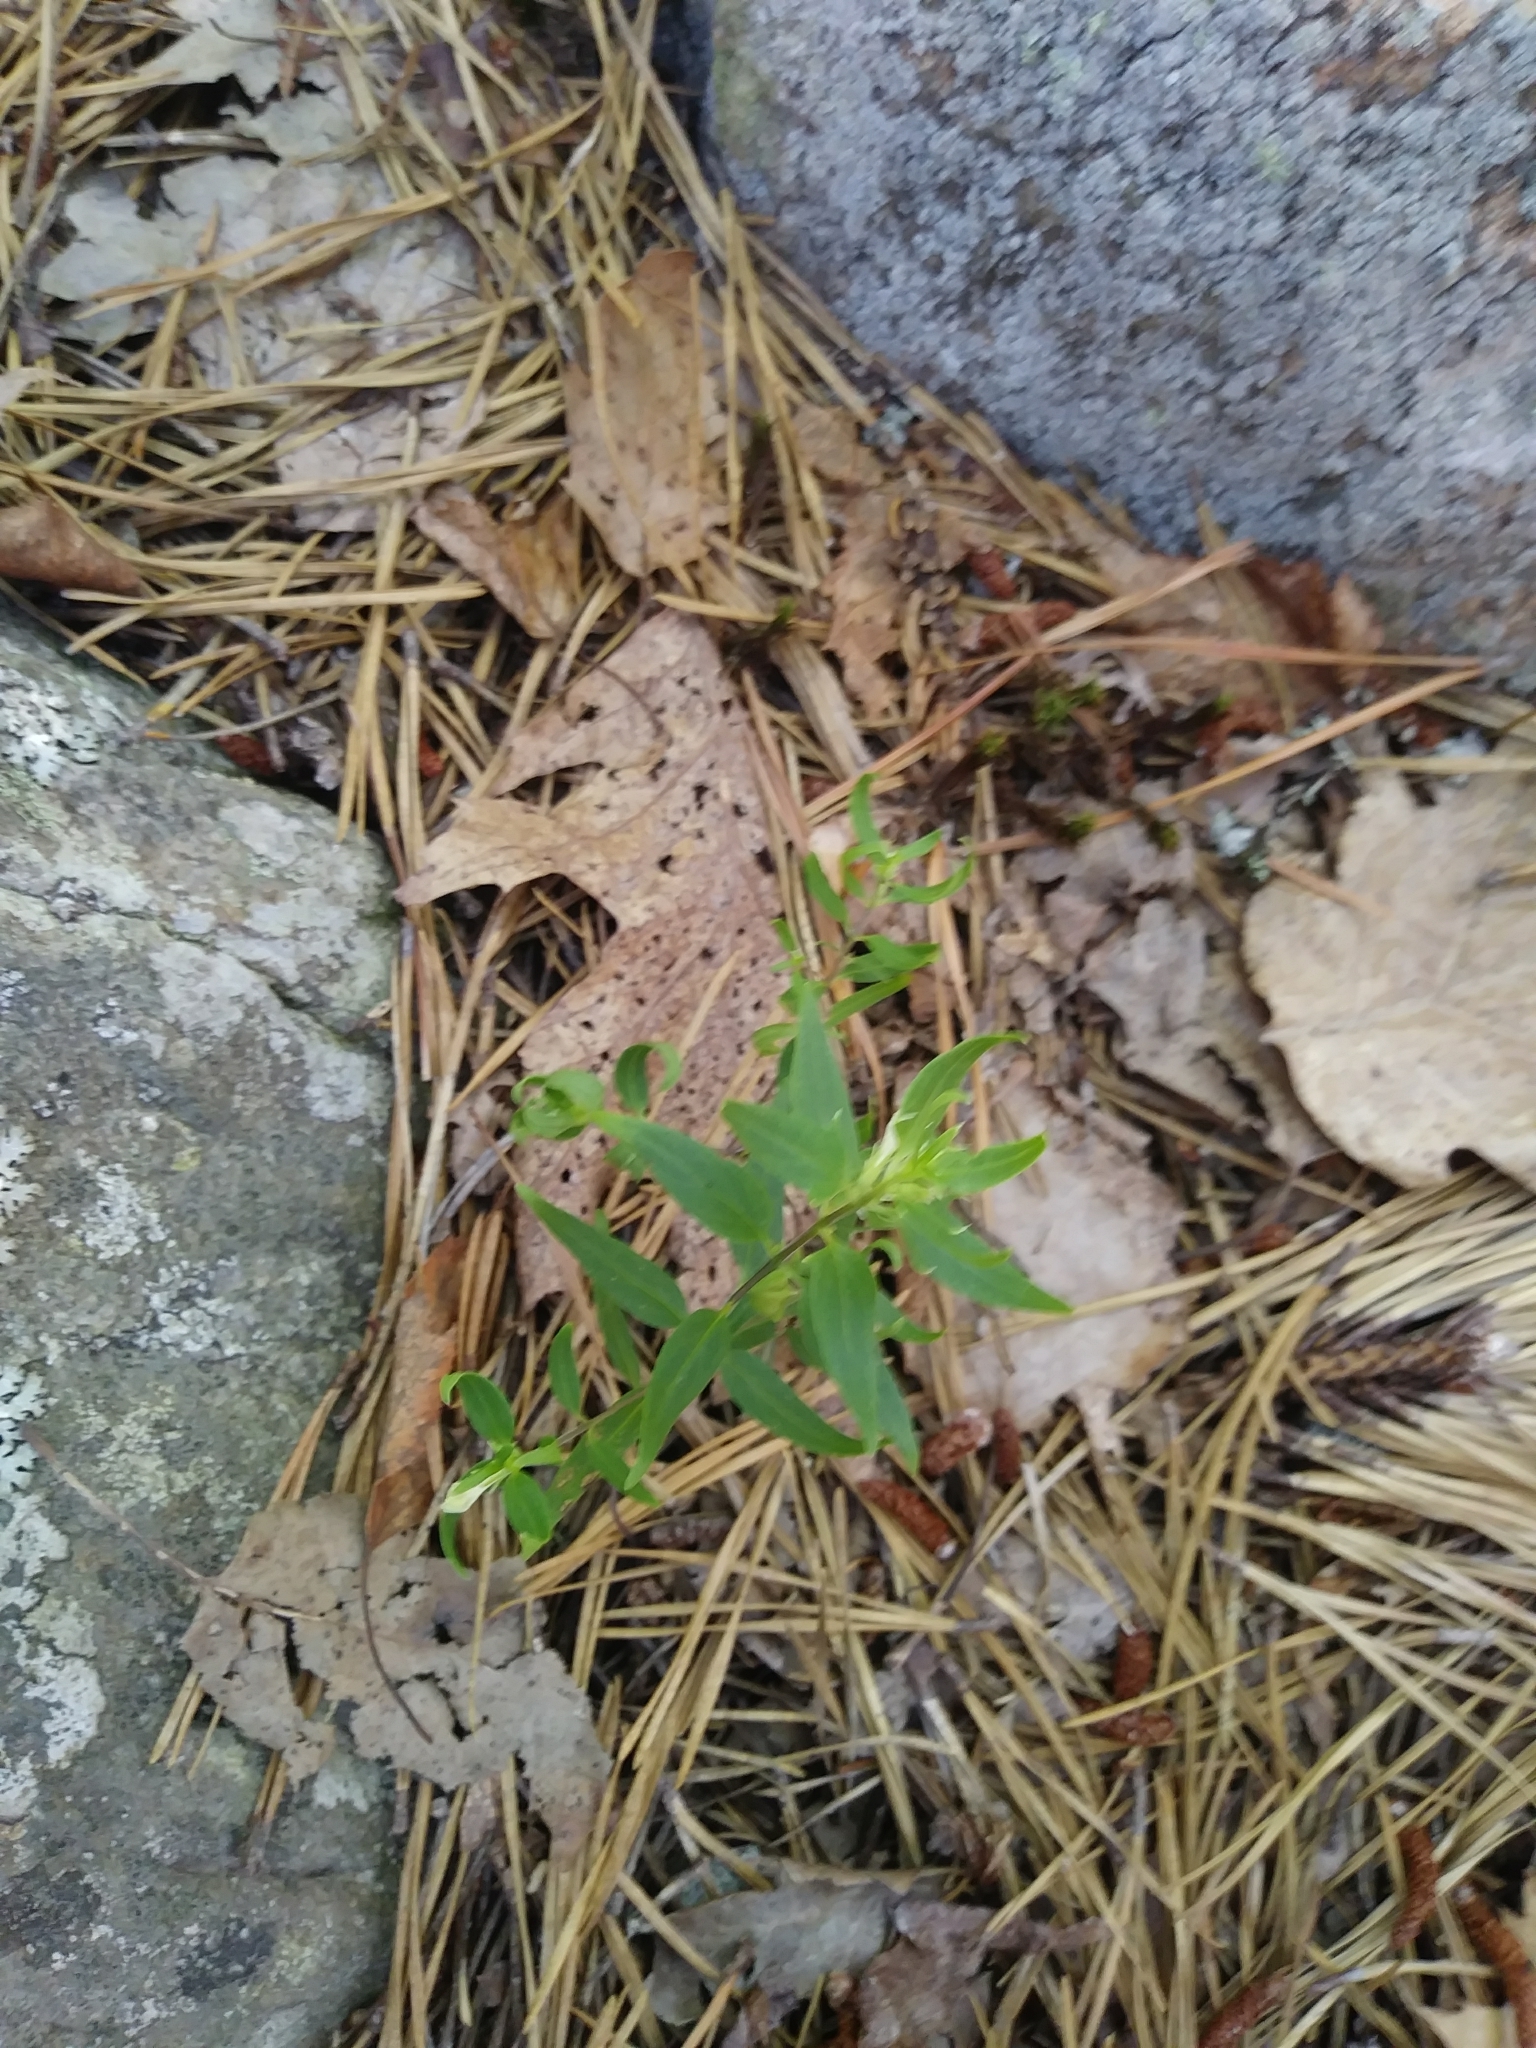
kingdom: Plantae
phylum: Tracheophyta
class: Magnoliopsida
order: Lamiales
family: Orobanchaceae
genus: Melampyrum
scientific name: Melampyrum lineare
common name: American cow-wheat
